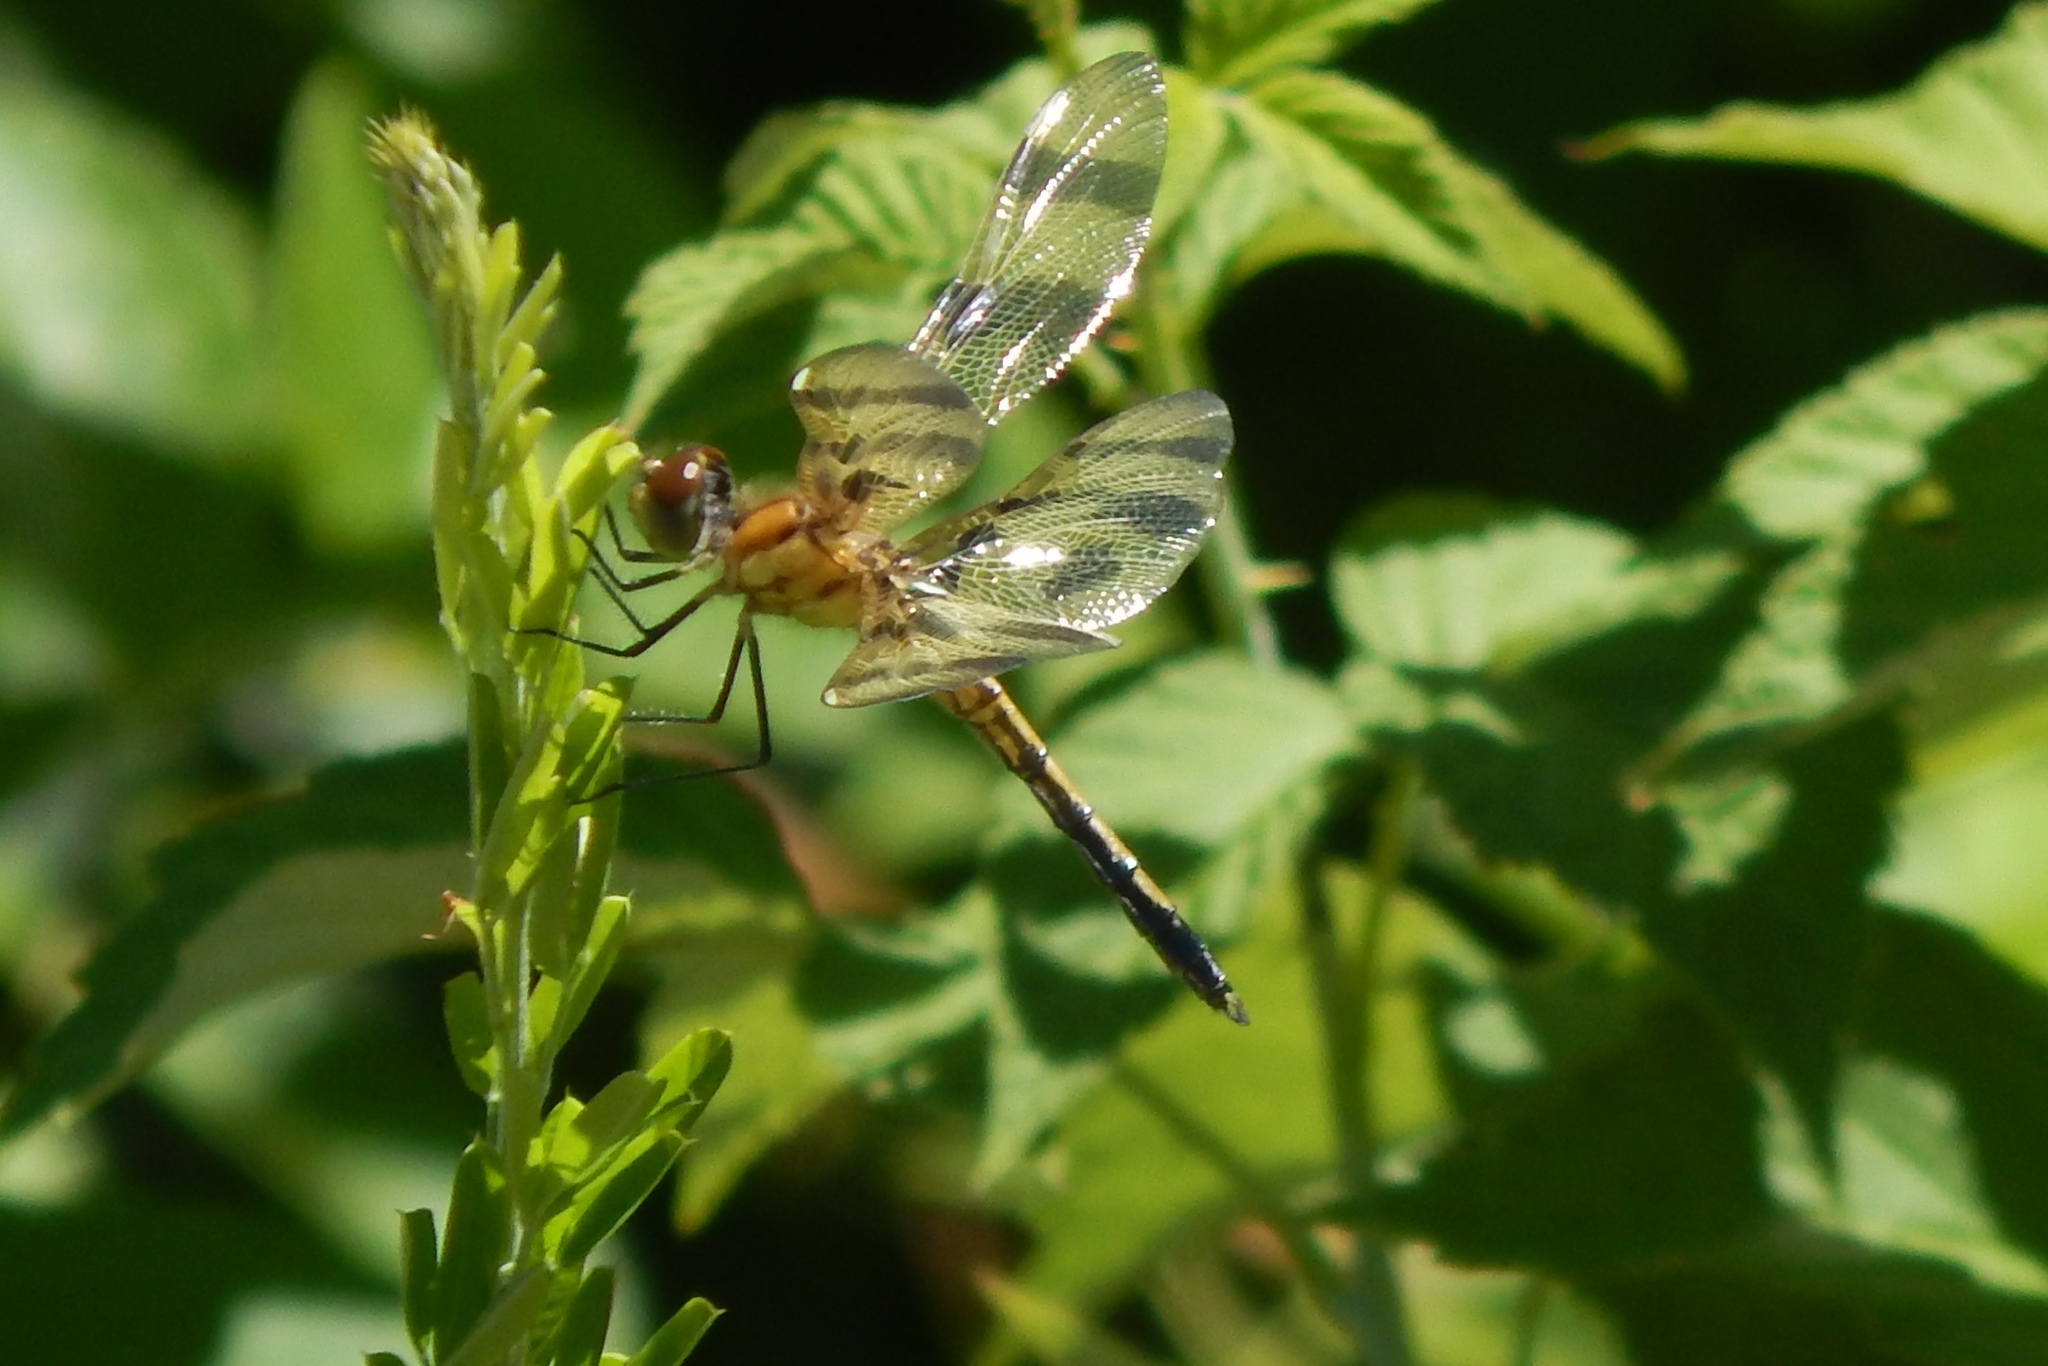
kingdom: Animalia
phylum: Arthropoda
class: Insecta
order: Odonata
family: Libellulidae
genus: Celithemis
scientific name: Celithemis eponina
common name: Halloween pennant
